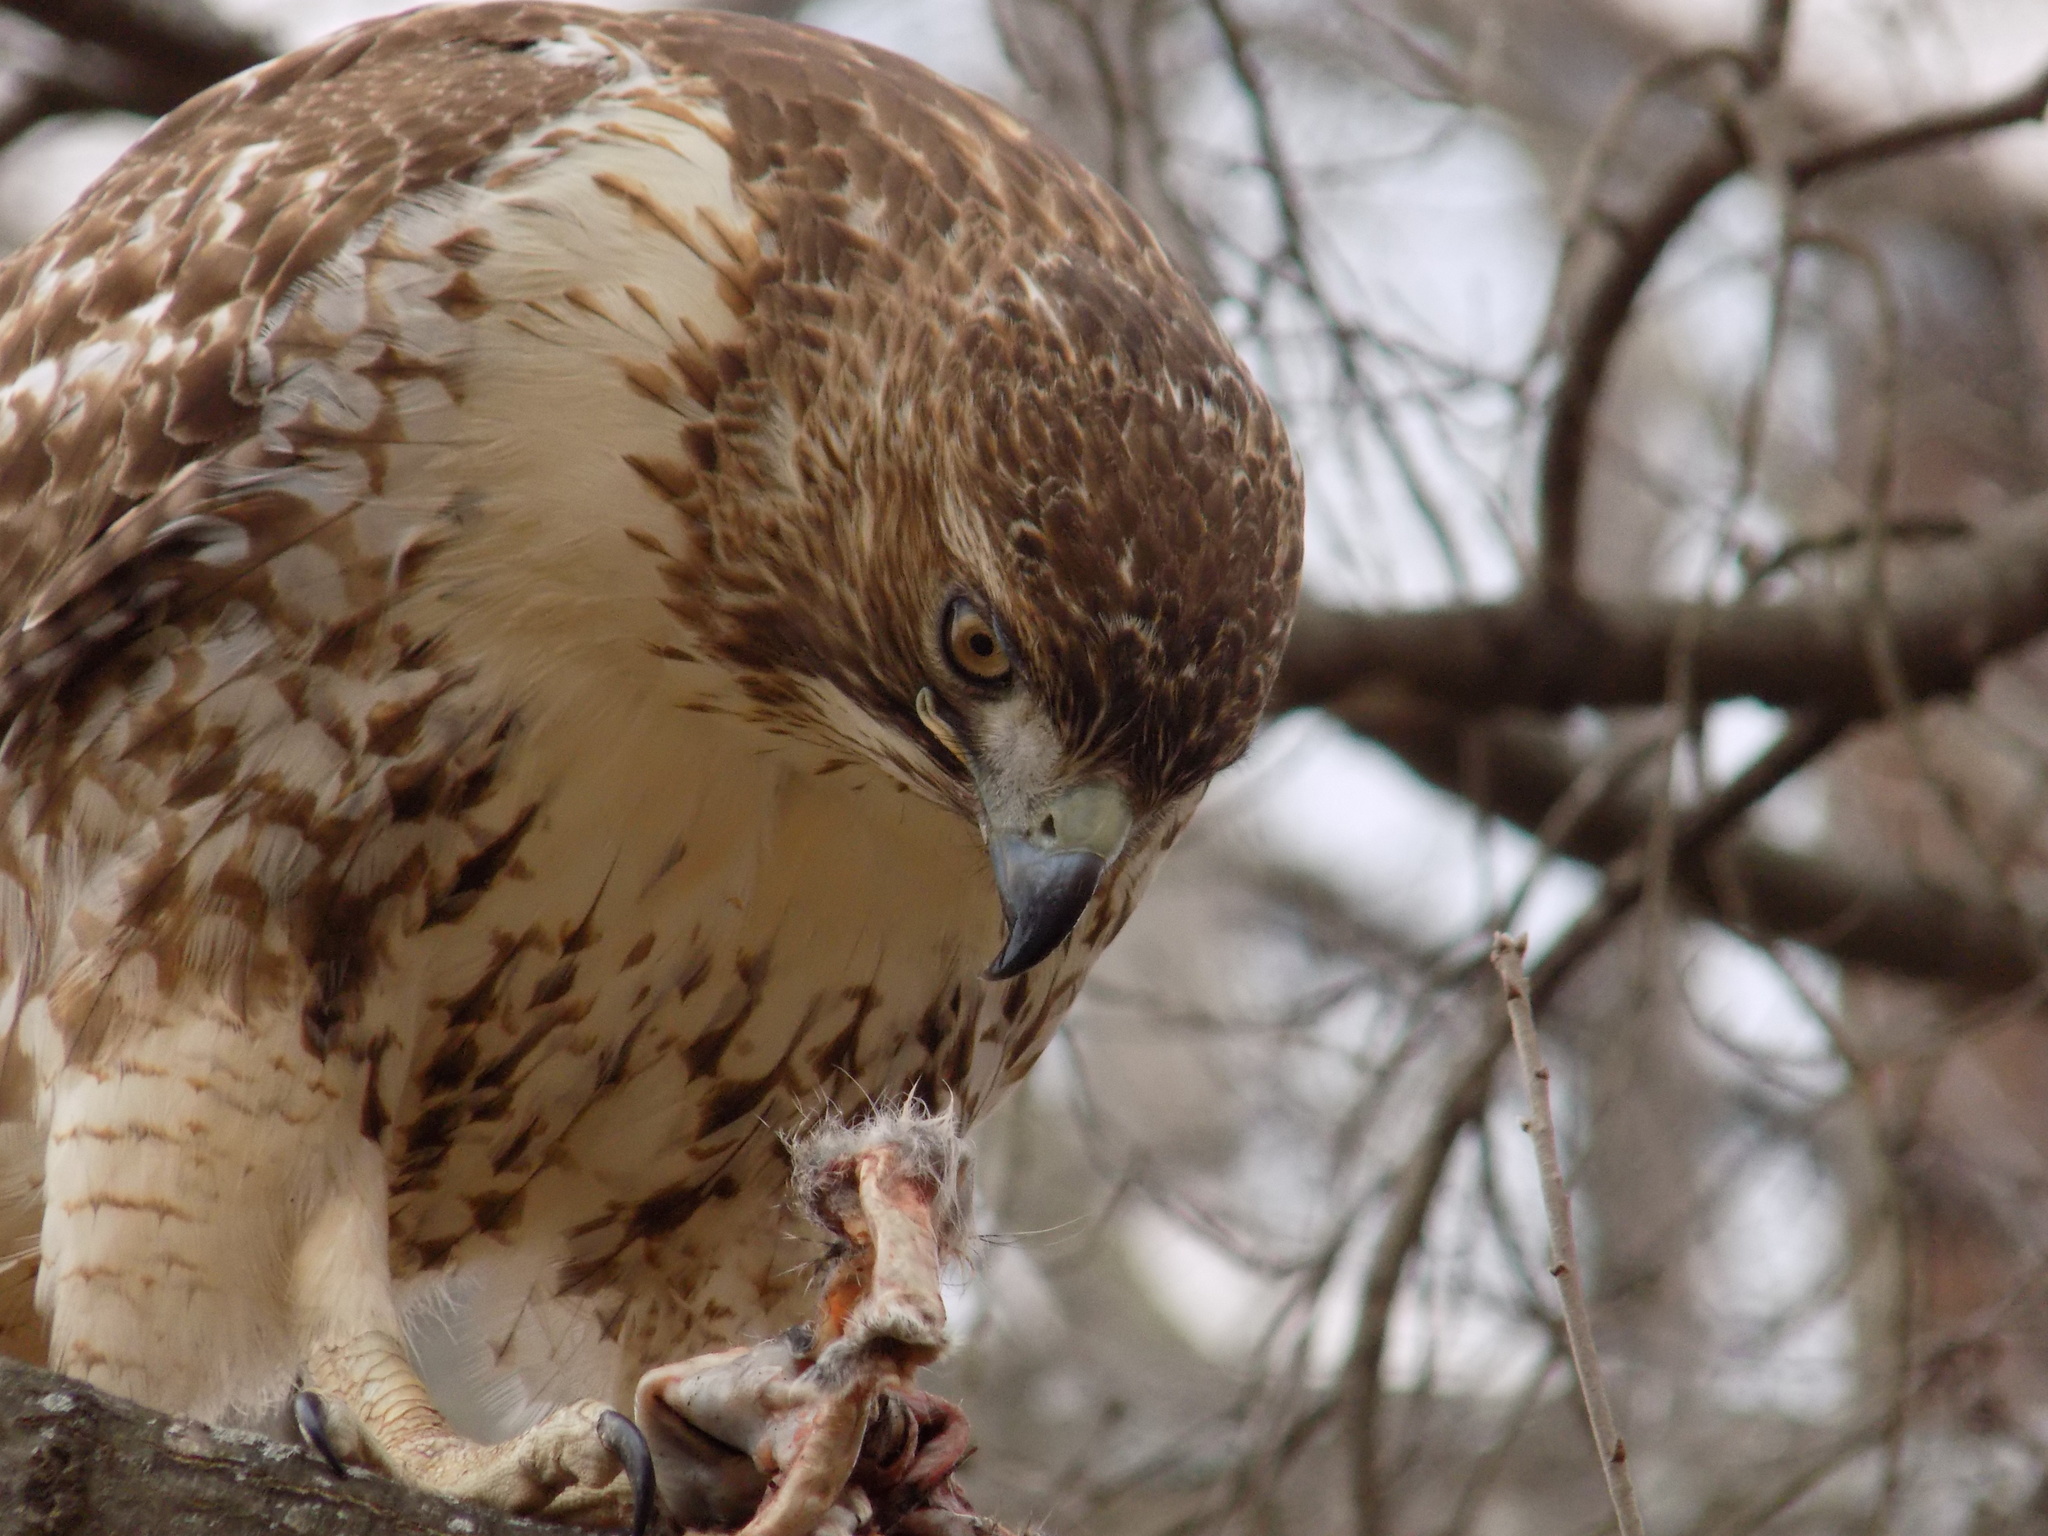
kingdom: Animalia
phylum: Chordata
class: Aves
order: Accipitriformes
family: Accipitridae
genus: Buteo
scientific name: Buteo jamaicensis
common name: Red-tailed hawk
